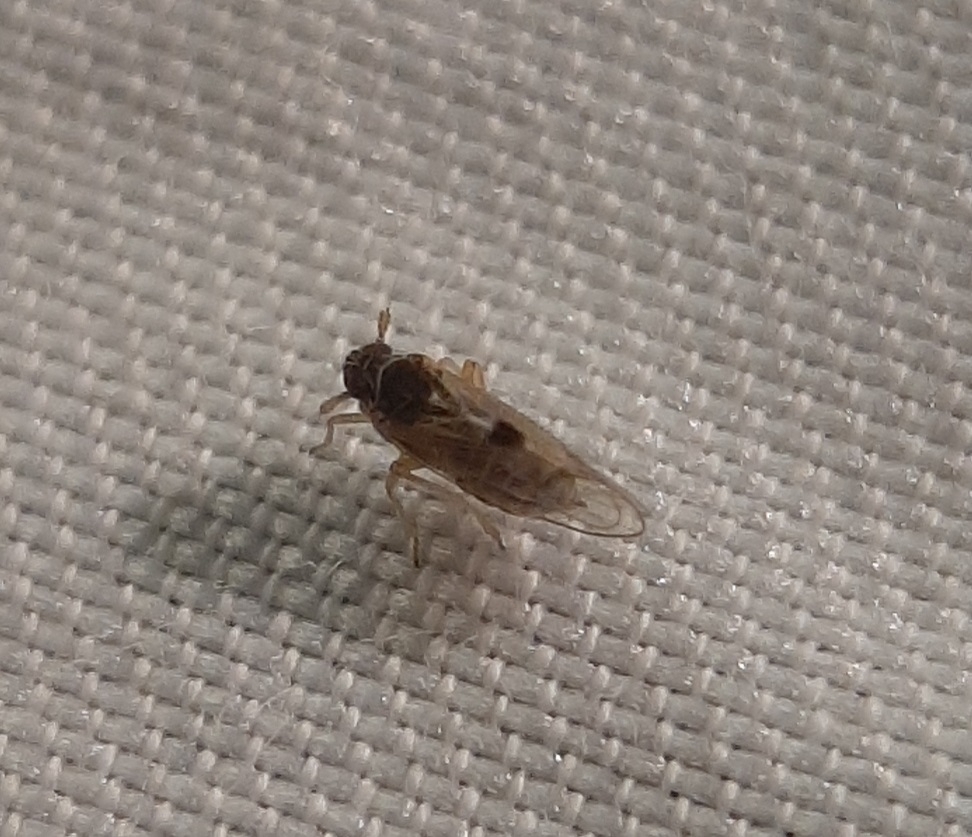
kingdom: Animalia
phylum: Arthropoda
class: Insecta
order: Hemiptera
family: Delphacidae
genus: Chionomus
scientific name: Chionomus
